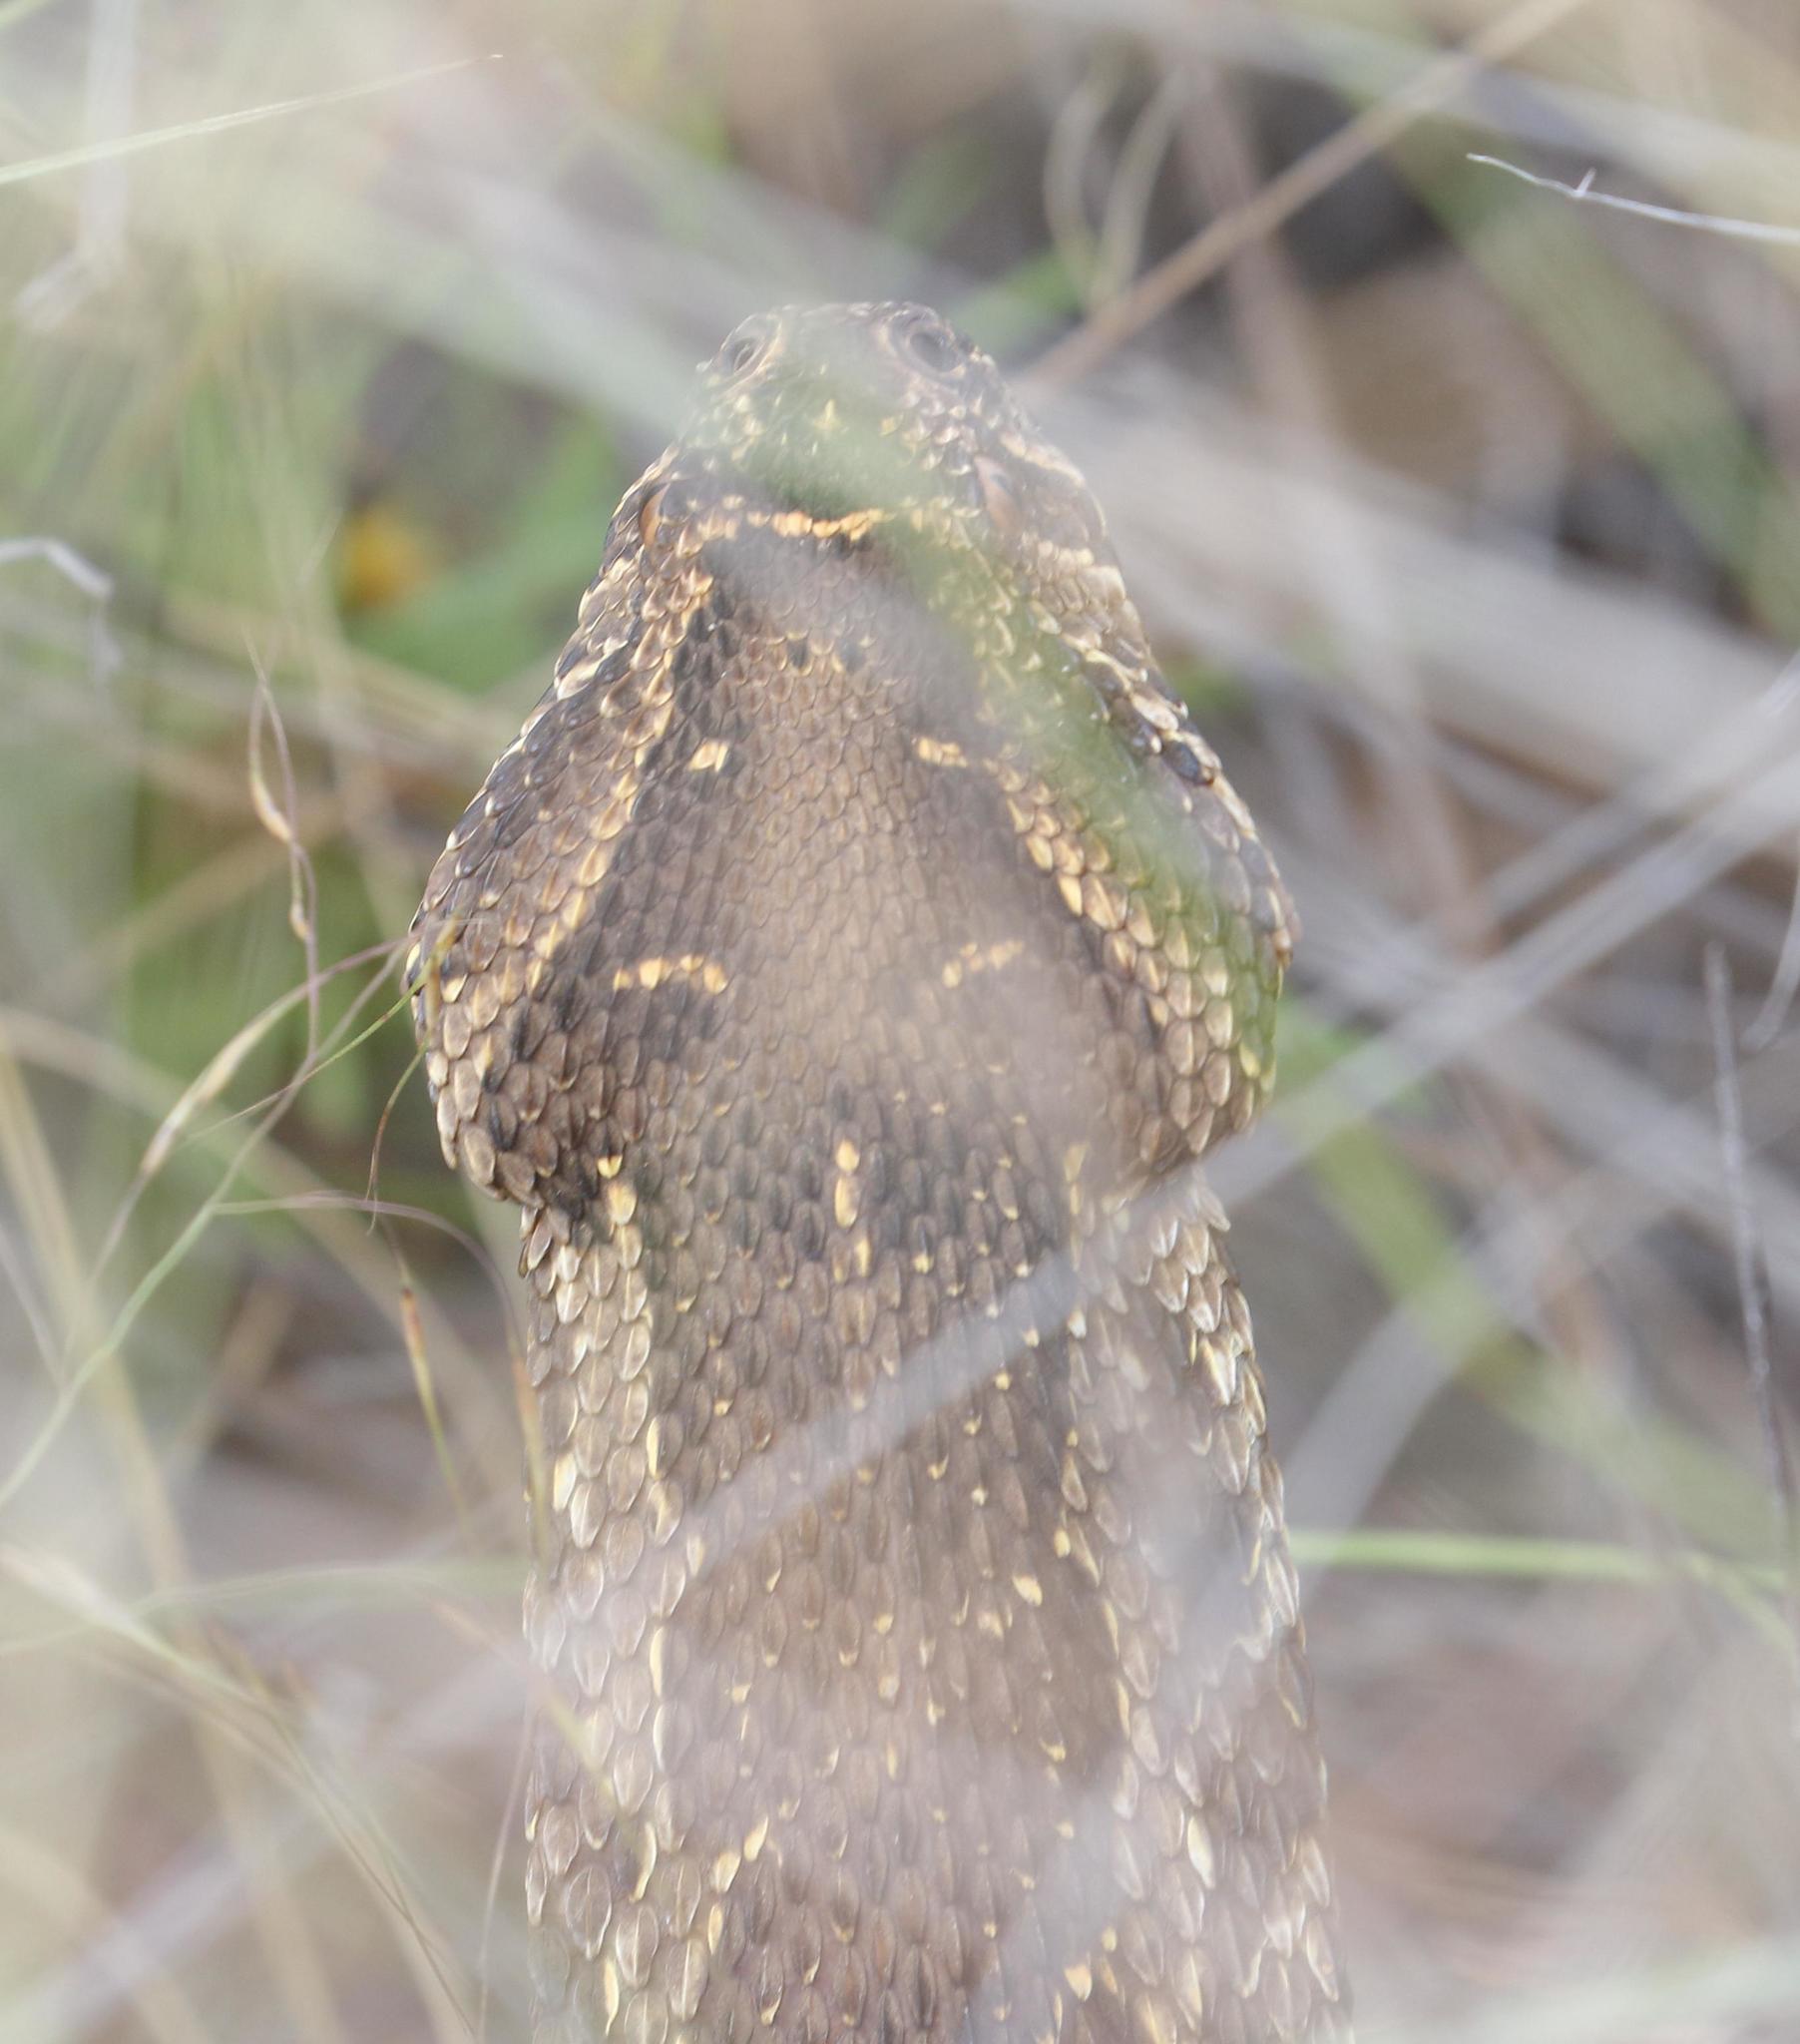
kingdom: Animalia
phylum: Chordata
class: Squamata
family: Viperidae
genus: Bitis
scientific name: Bitis arietans
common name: Puff adder
